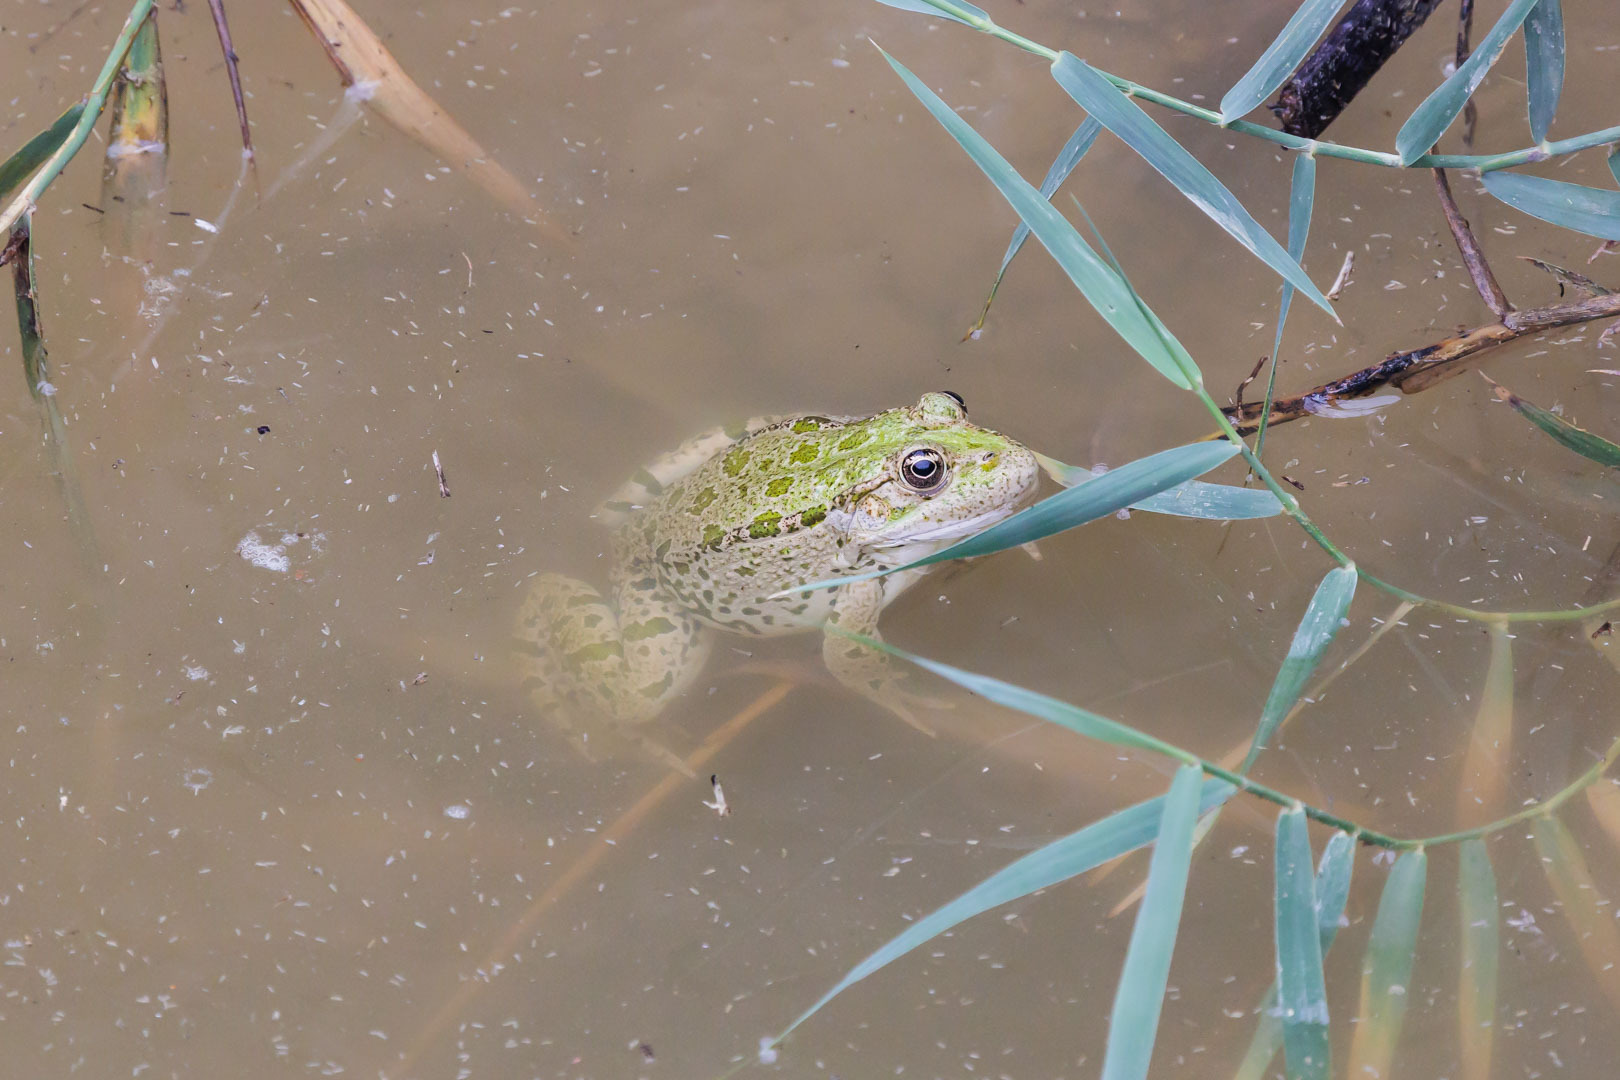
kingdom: Animalia
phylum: Chordata
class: Amphibia
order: Anura
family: Ranidae
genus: Pelophylax
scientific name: Pelophylax ridibundus
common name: Marsh frog
